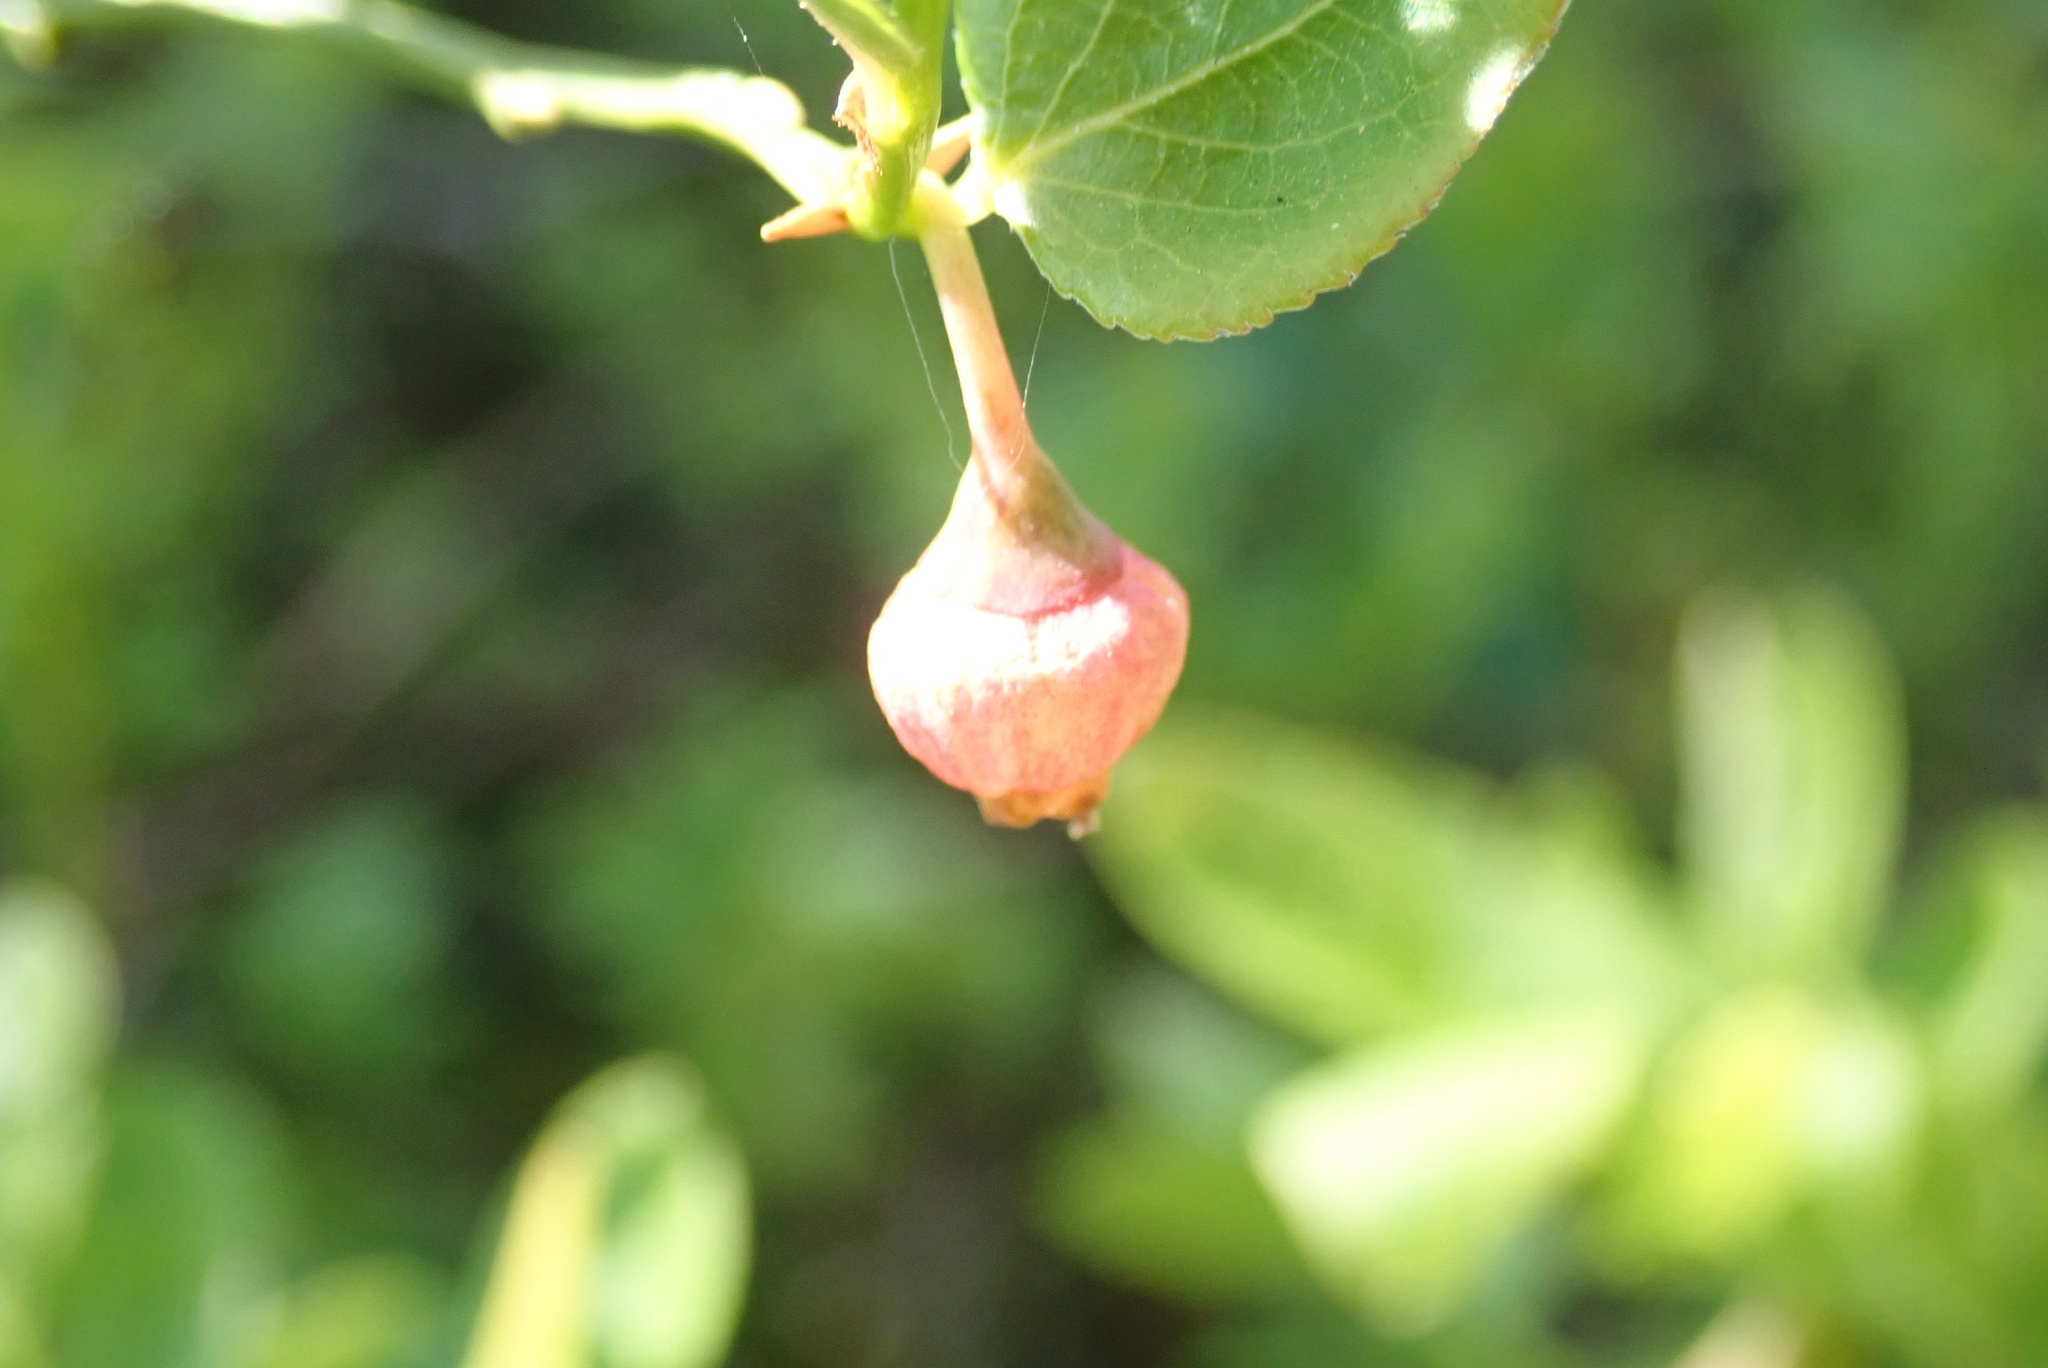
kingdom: Plantae
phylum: Tracheophyta
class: Magnoliopsida
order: Ericales
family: Ericaceae
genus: Vaccinium
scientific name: Vaccinium myrtillus
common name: Bilberry
